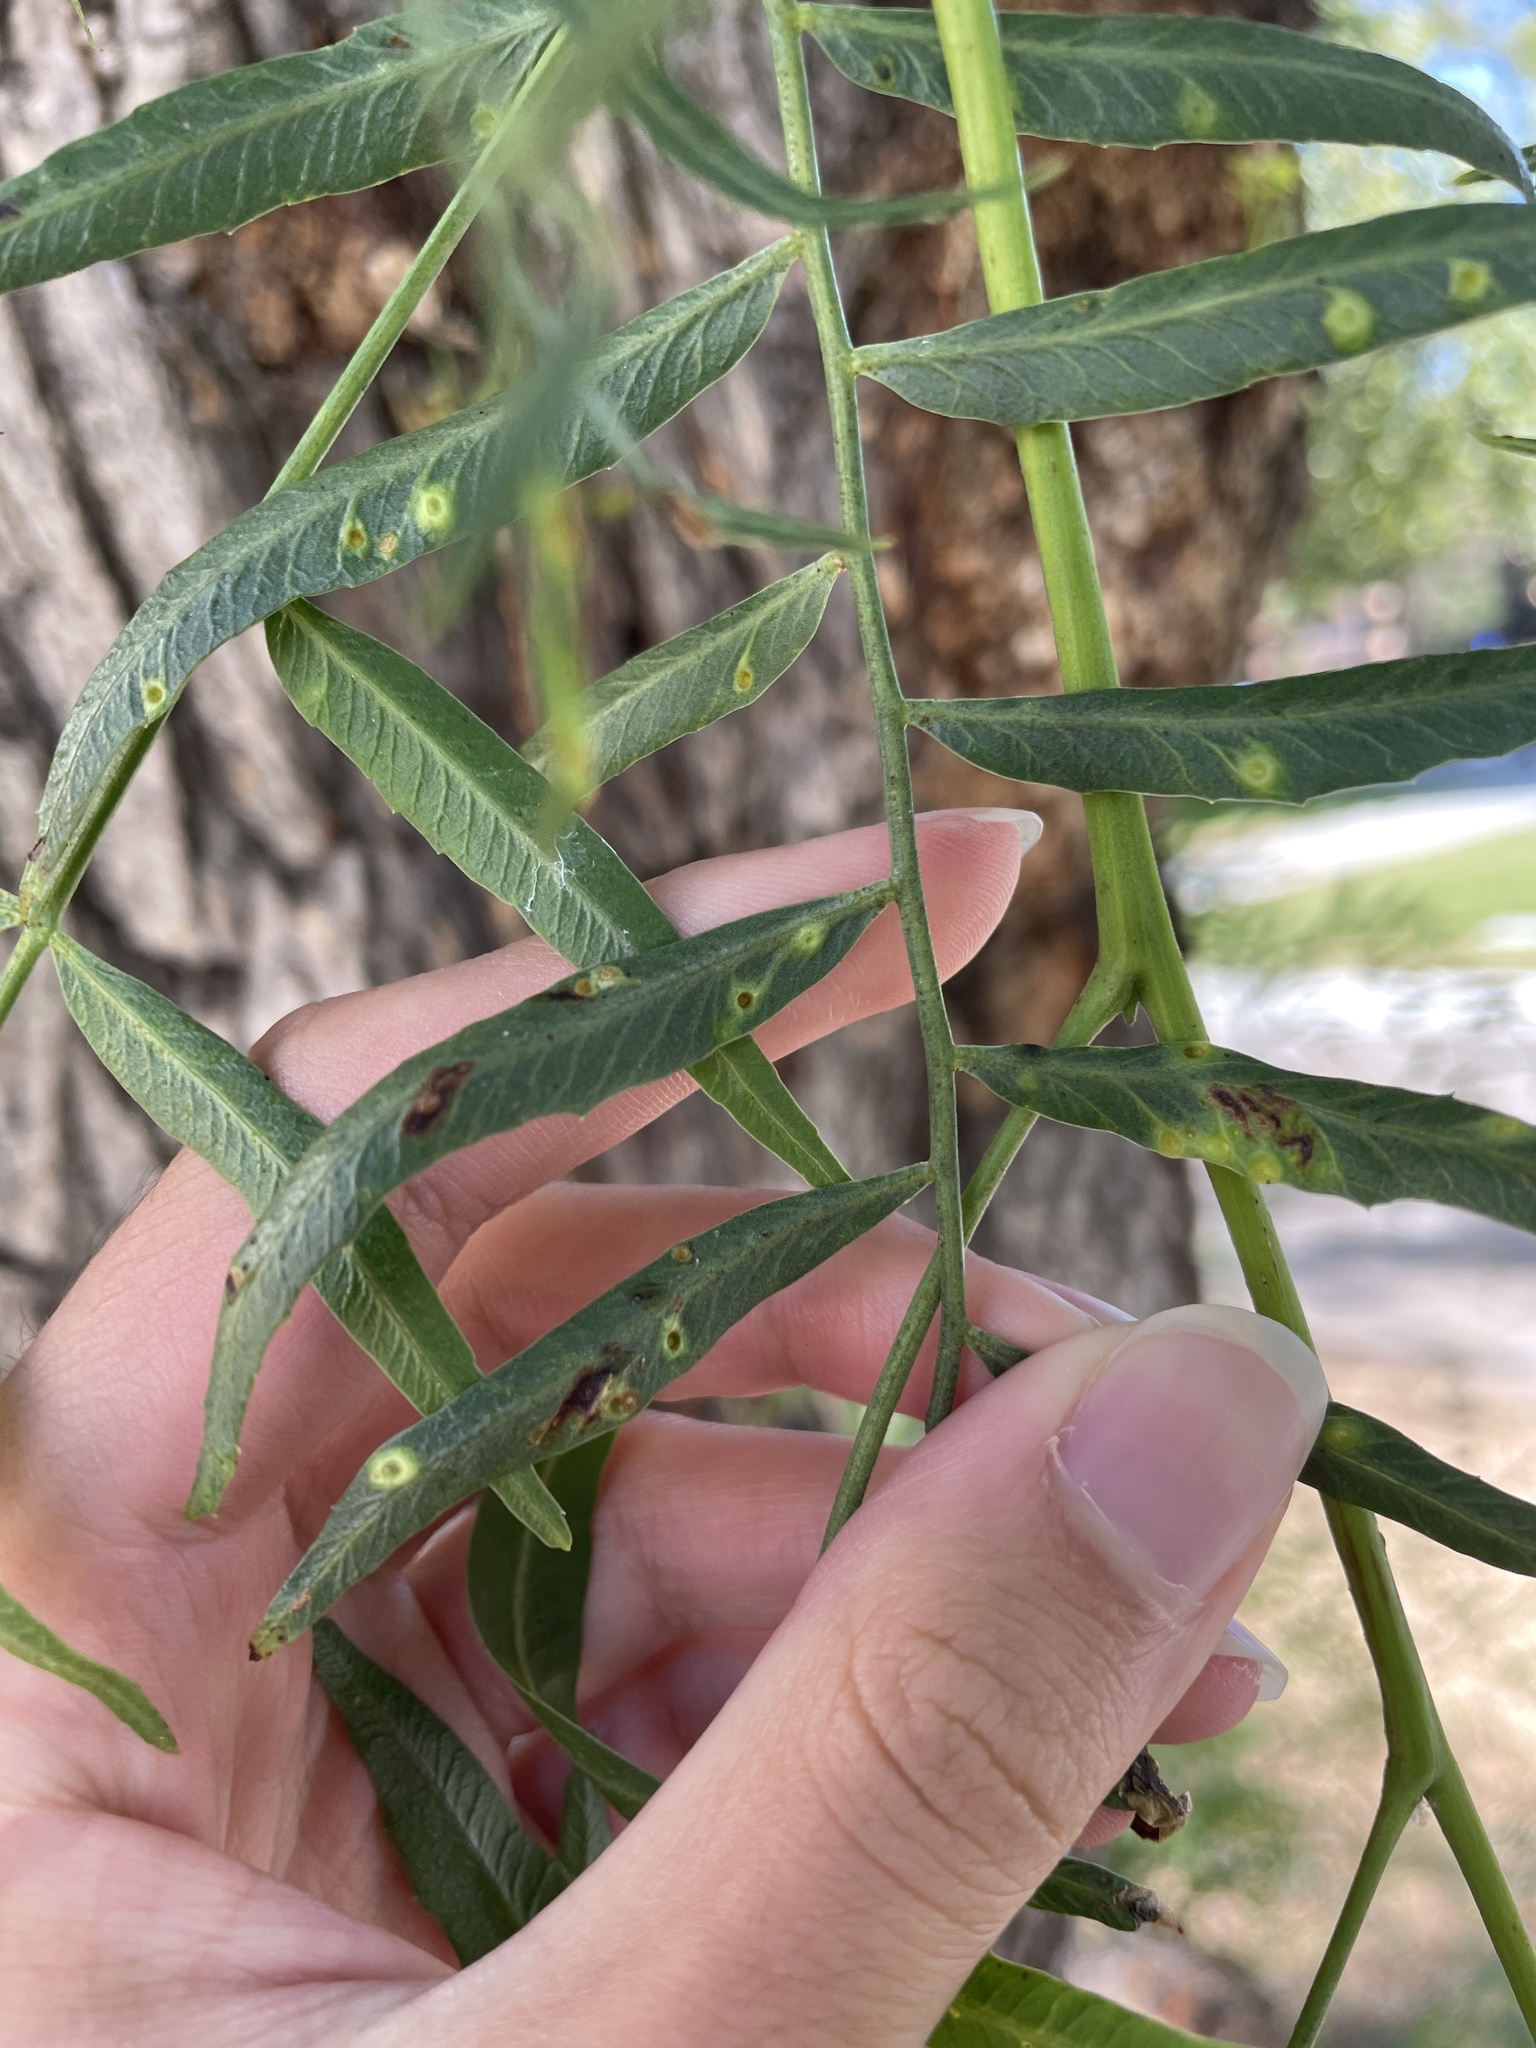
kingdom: Animalia
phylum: Arthropoda
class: Insecta
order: Hemiptera
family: Calophyidae
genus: Calophya
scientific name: Calophya schini
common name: Pepper tree psyllid
